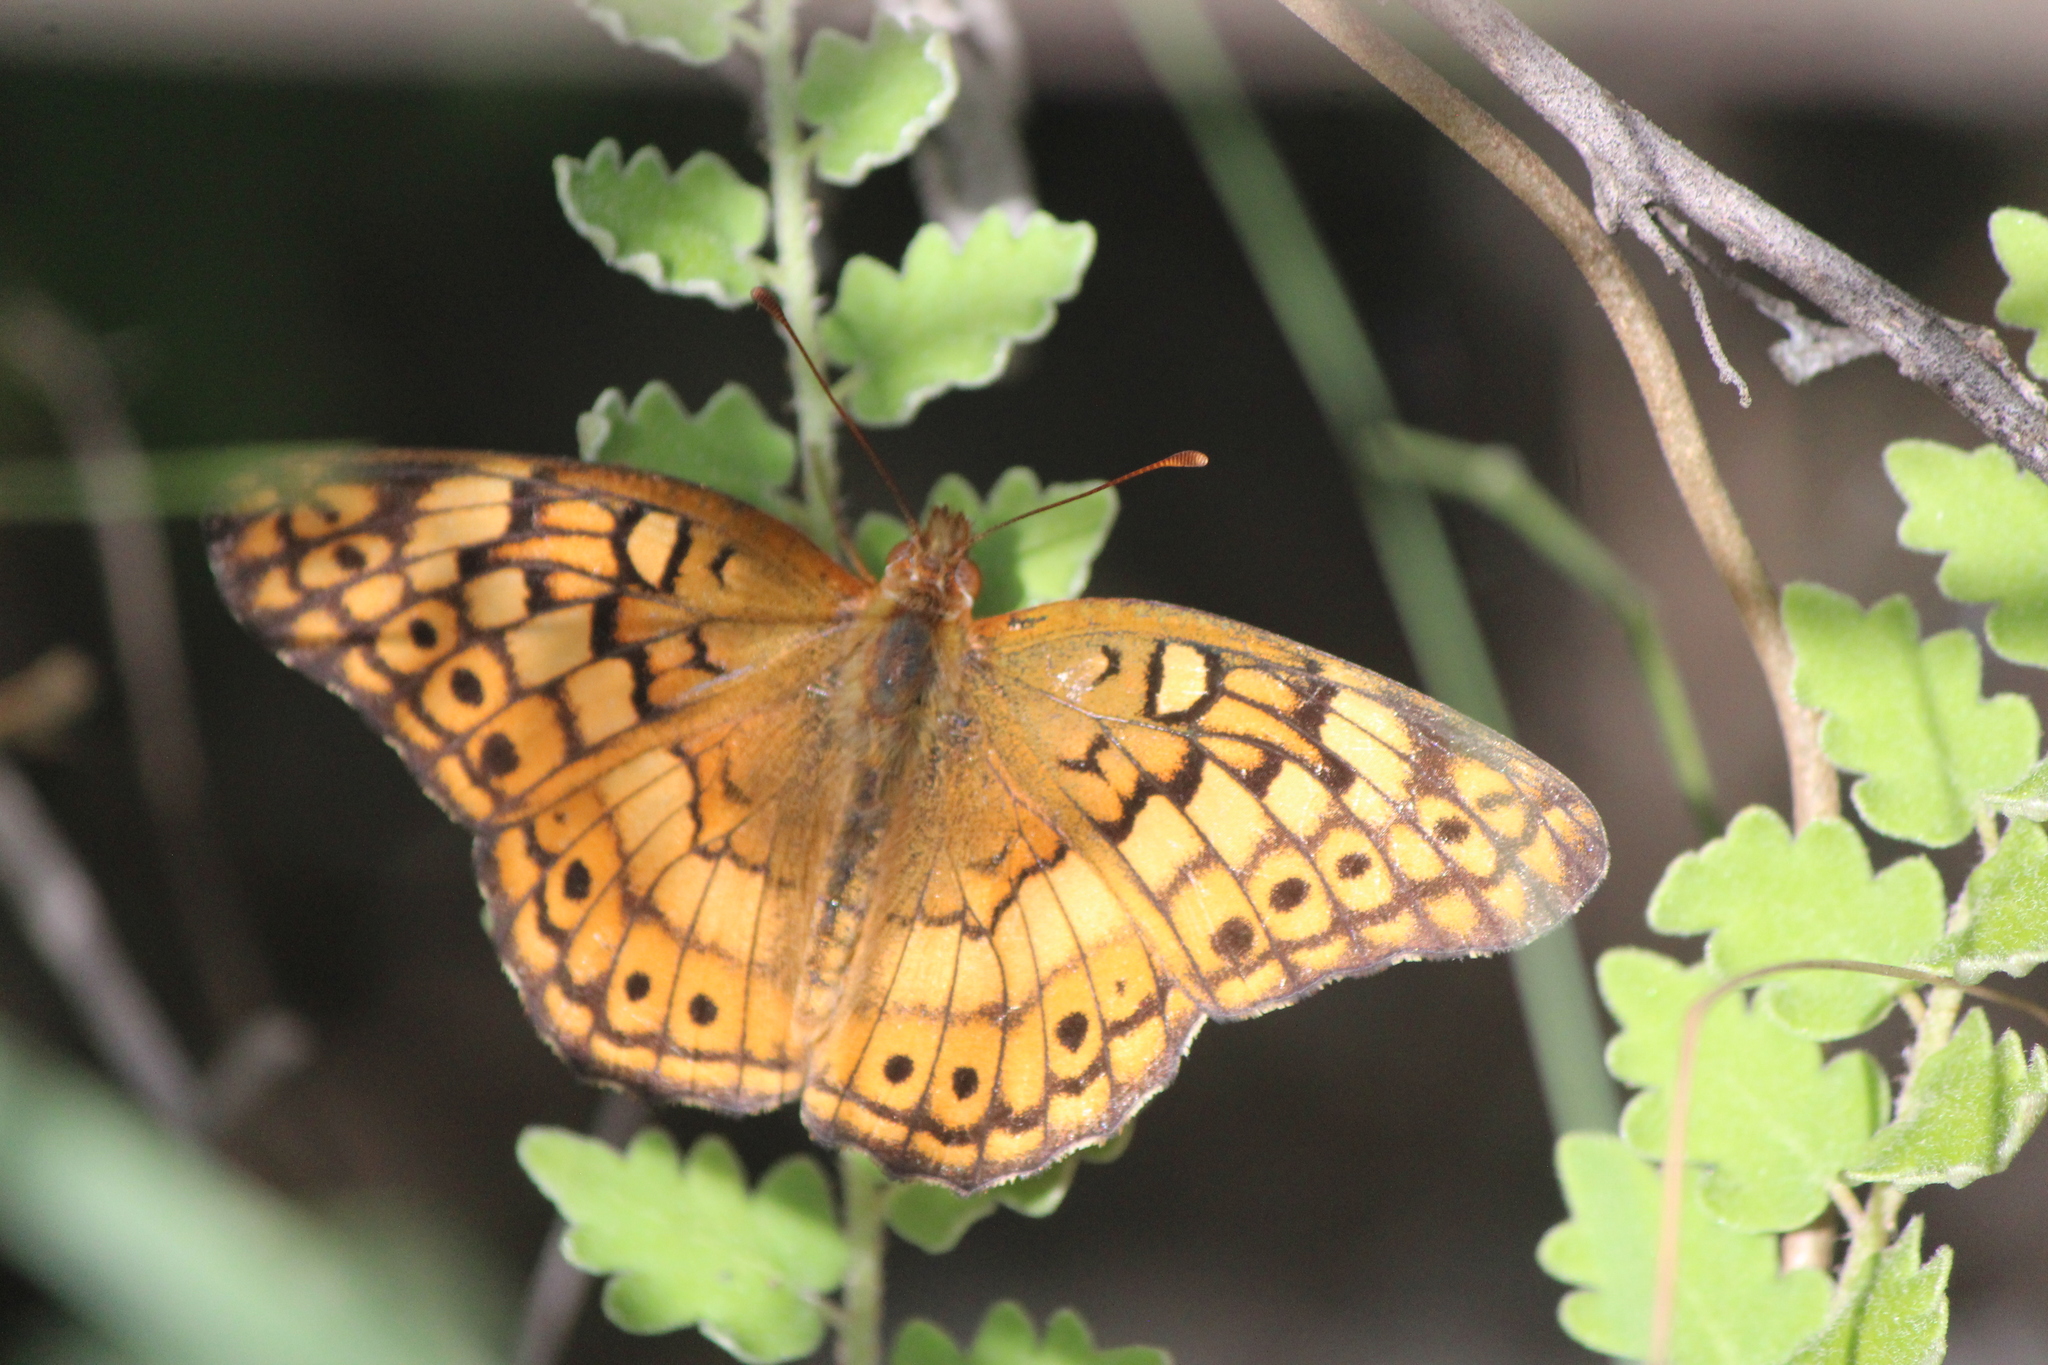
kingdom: Animalia
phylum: Arthropoda
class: Insecta
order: Lepidoptera
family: Nymphalidae
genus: Euptoieta
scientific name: Euptoieta claudia
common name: Variegated fritillary
